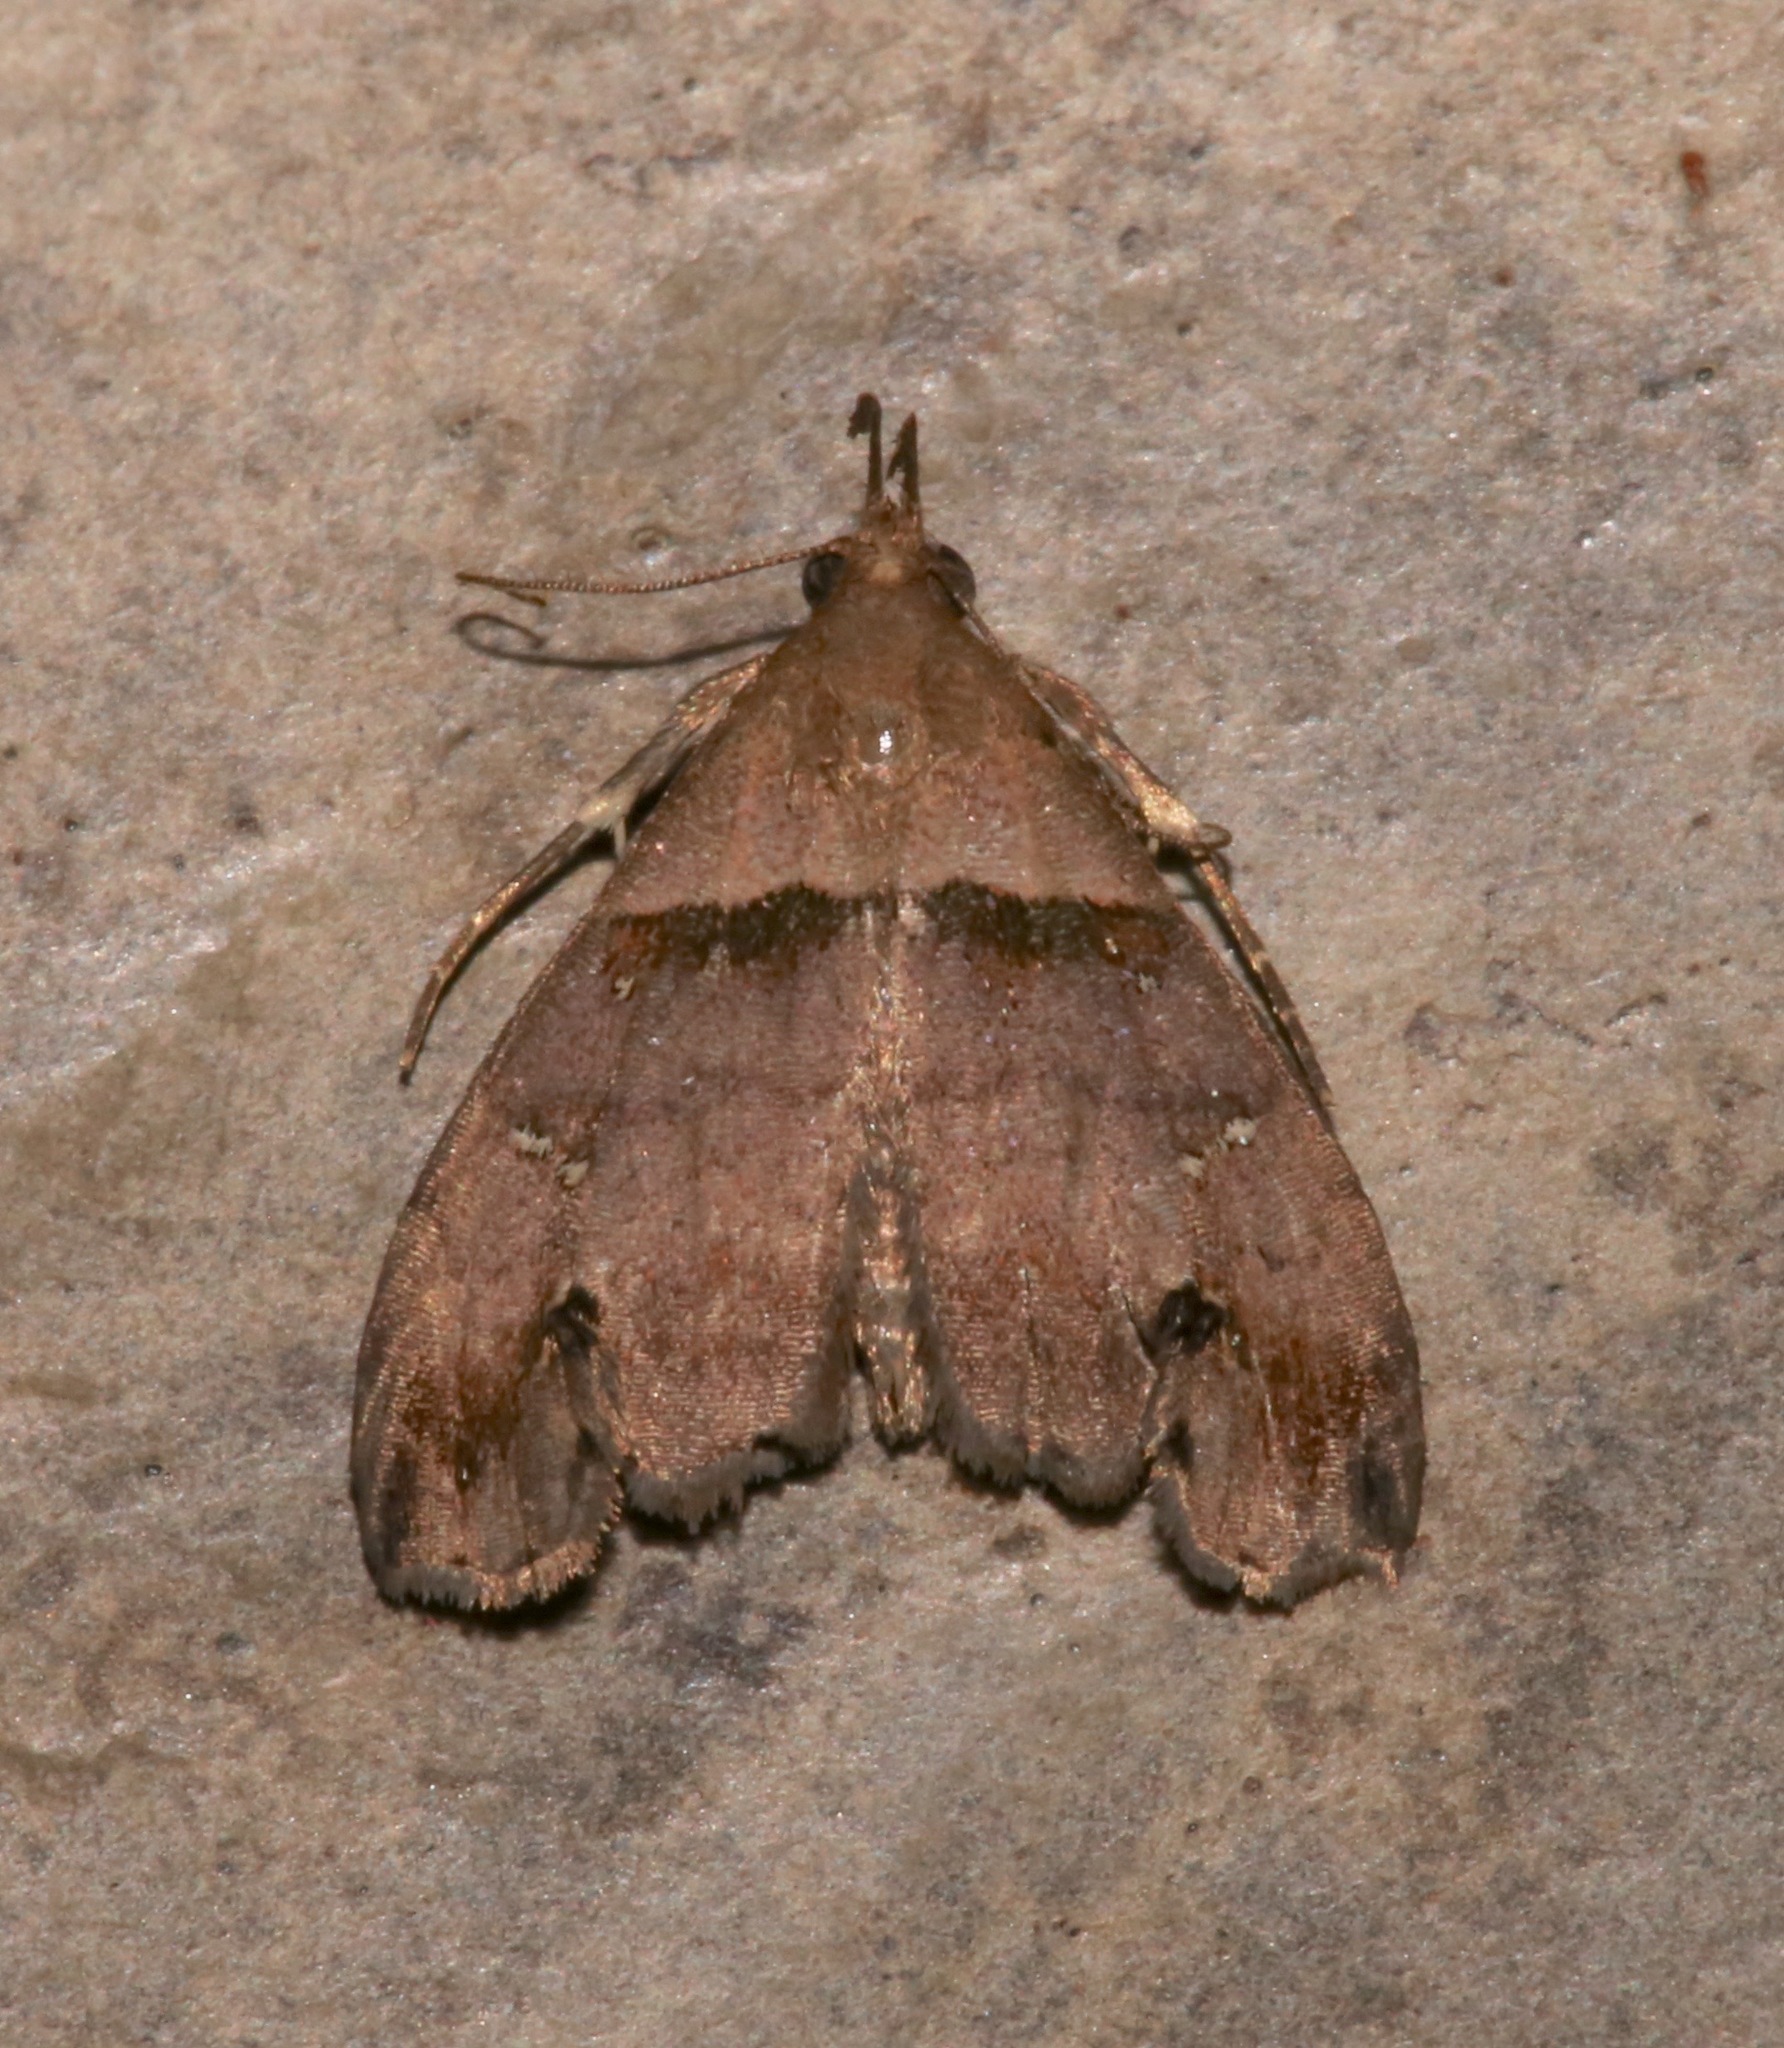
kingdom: Animalia
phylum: Arthropoda
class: Insecta
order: Lepidoptera
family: Erebidae
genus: Lascoria
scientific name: Lascoria ambigualis
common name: Ambiguous moth
